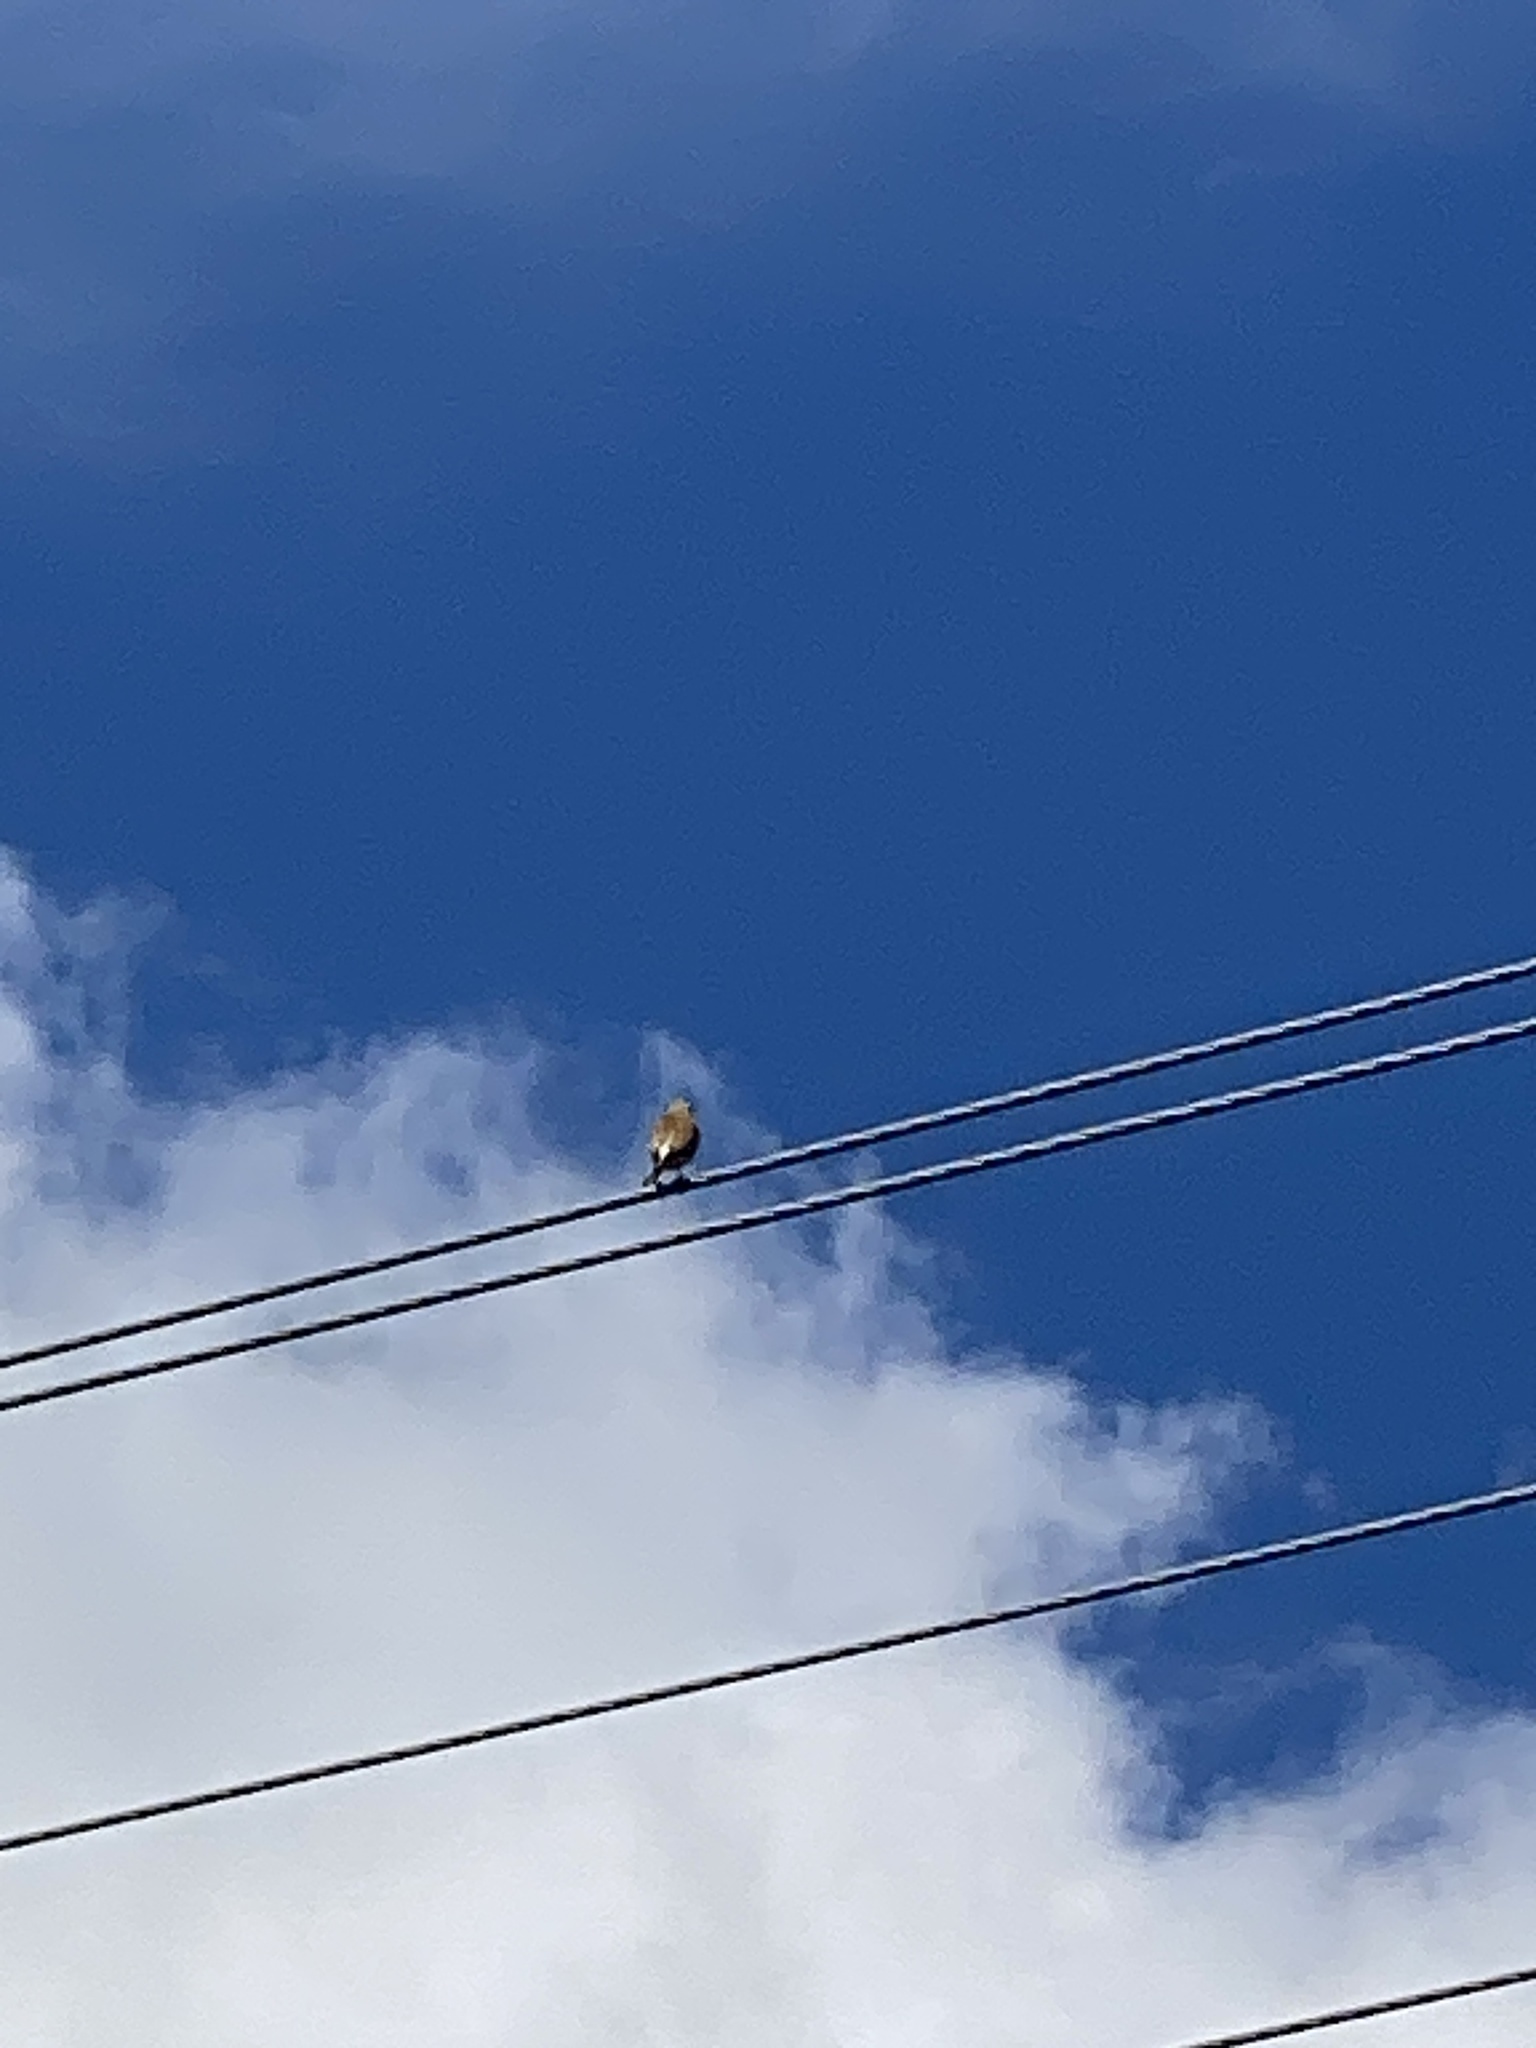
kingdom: Animalia
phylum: Chordata
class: Aves
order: Passeriformes
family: Fringillidae
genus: Linaria
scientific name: Linaria cannabina
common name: Common linnet
